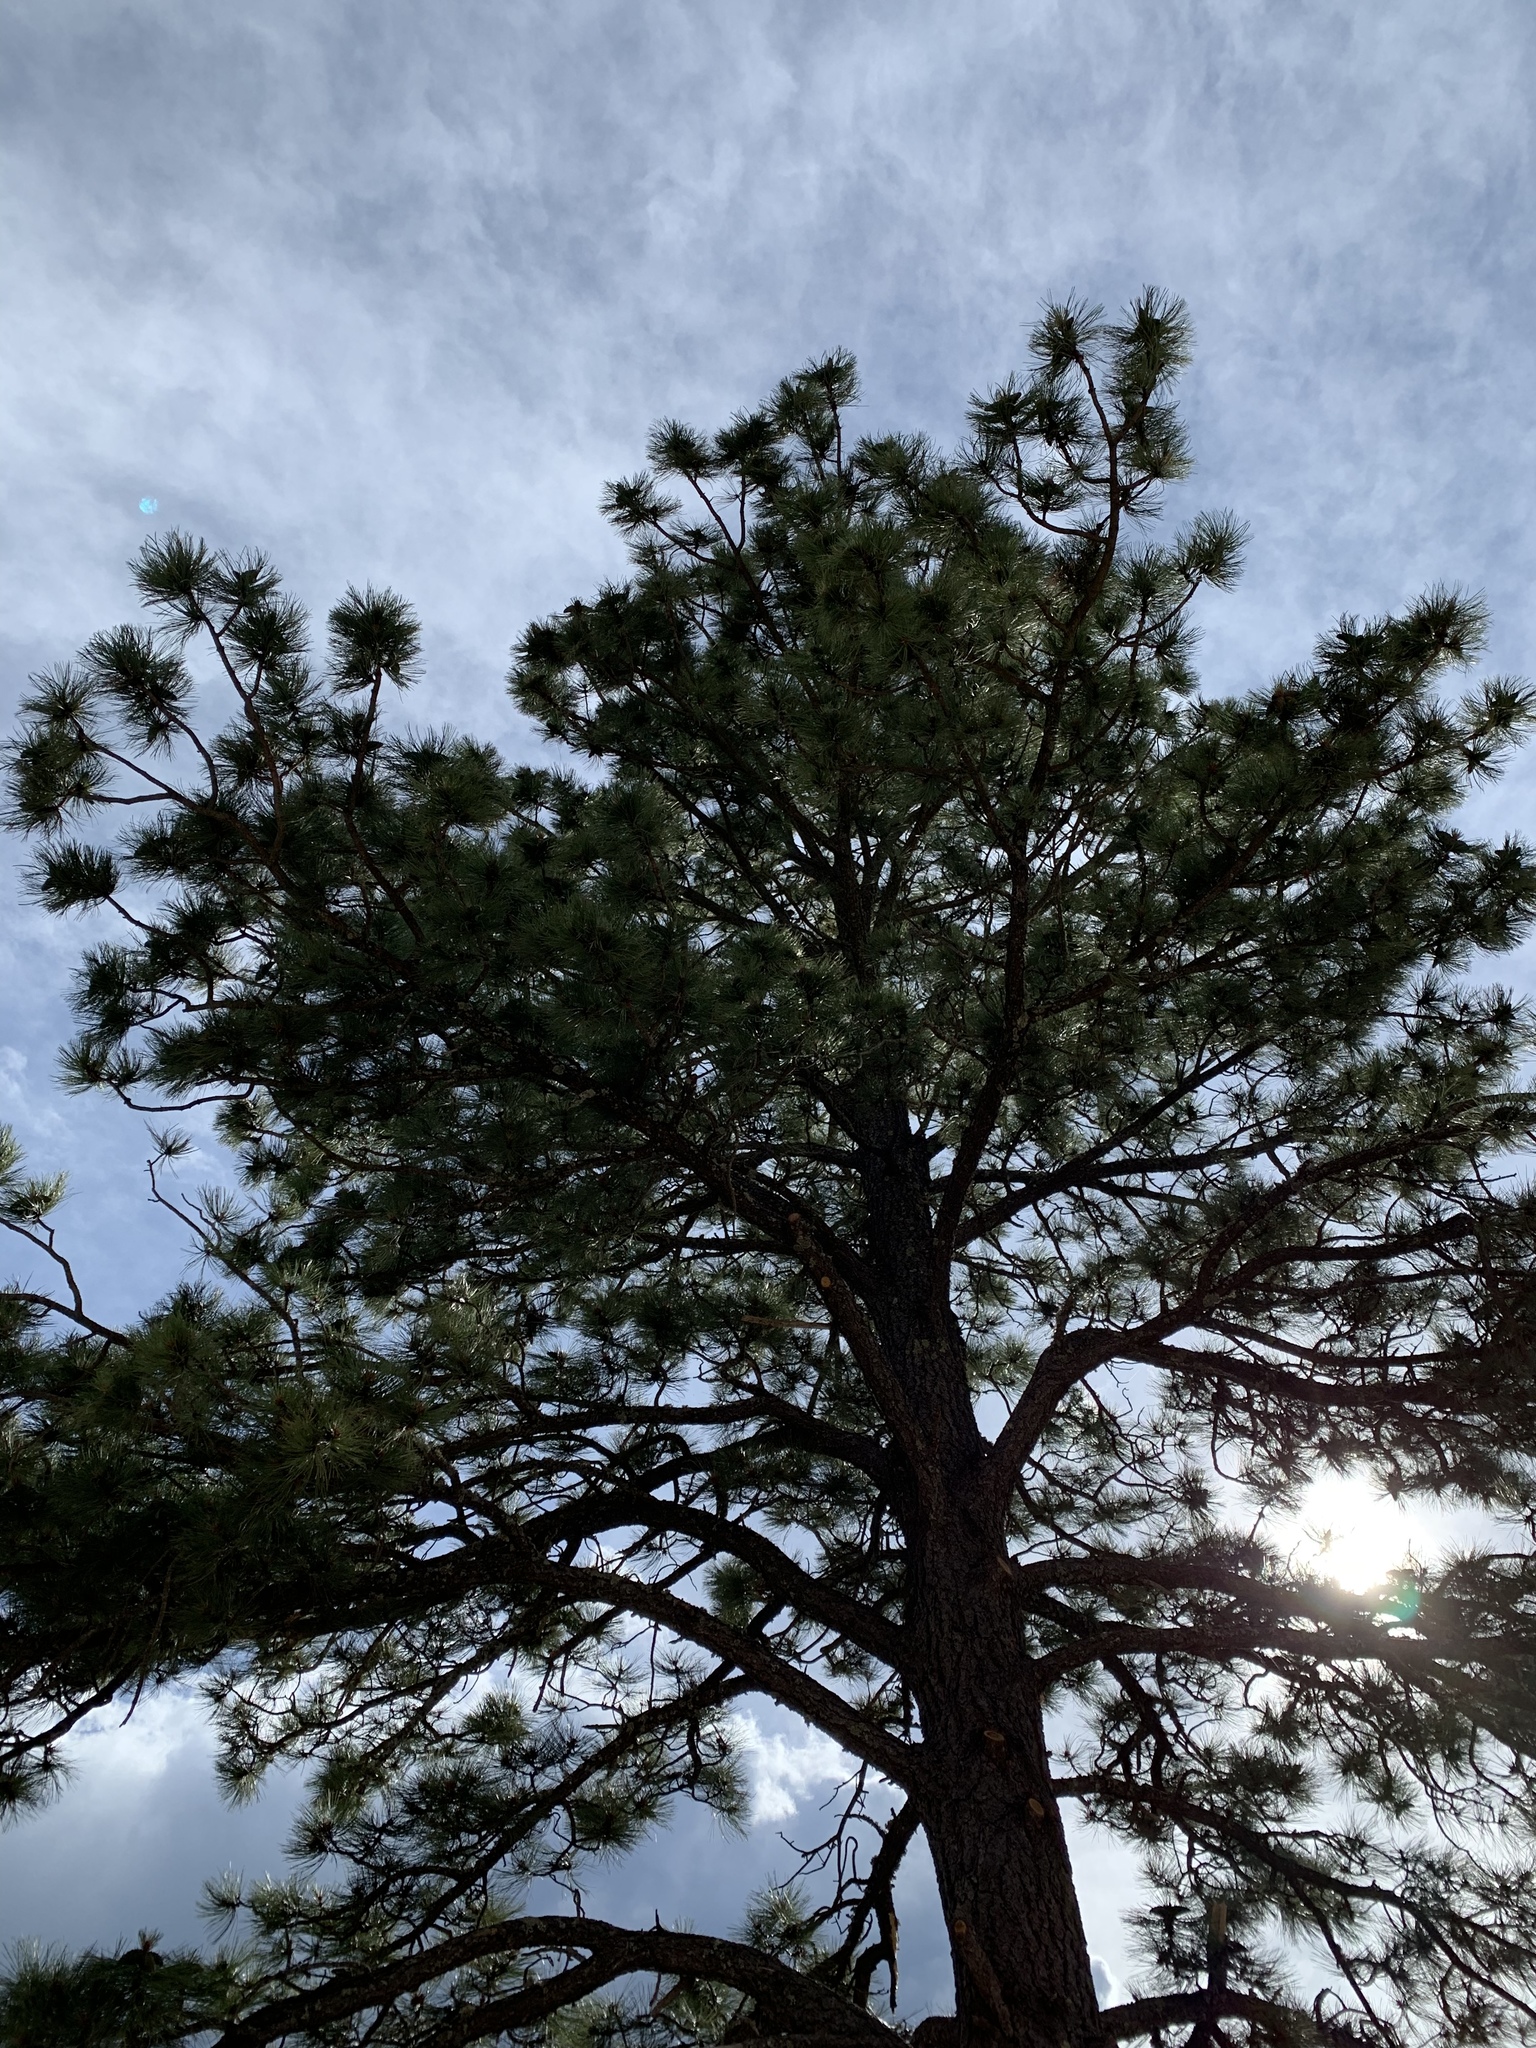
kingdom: Plantae
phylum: Tracheophyta
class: Pinopsida
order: Pinales
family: Pinaceae
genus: Pinus
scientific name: Pinus ponderosa
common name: Western yellow-pine
